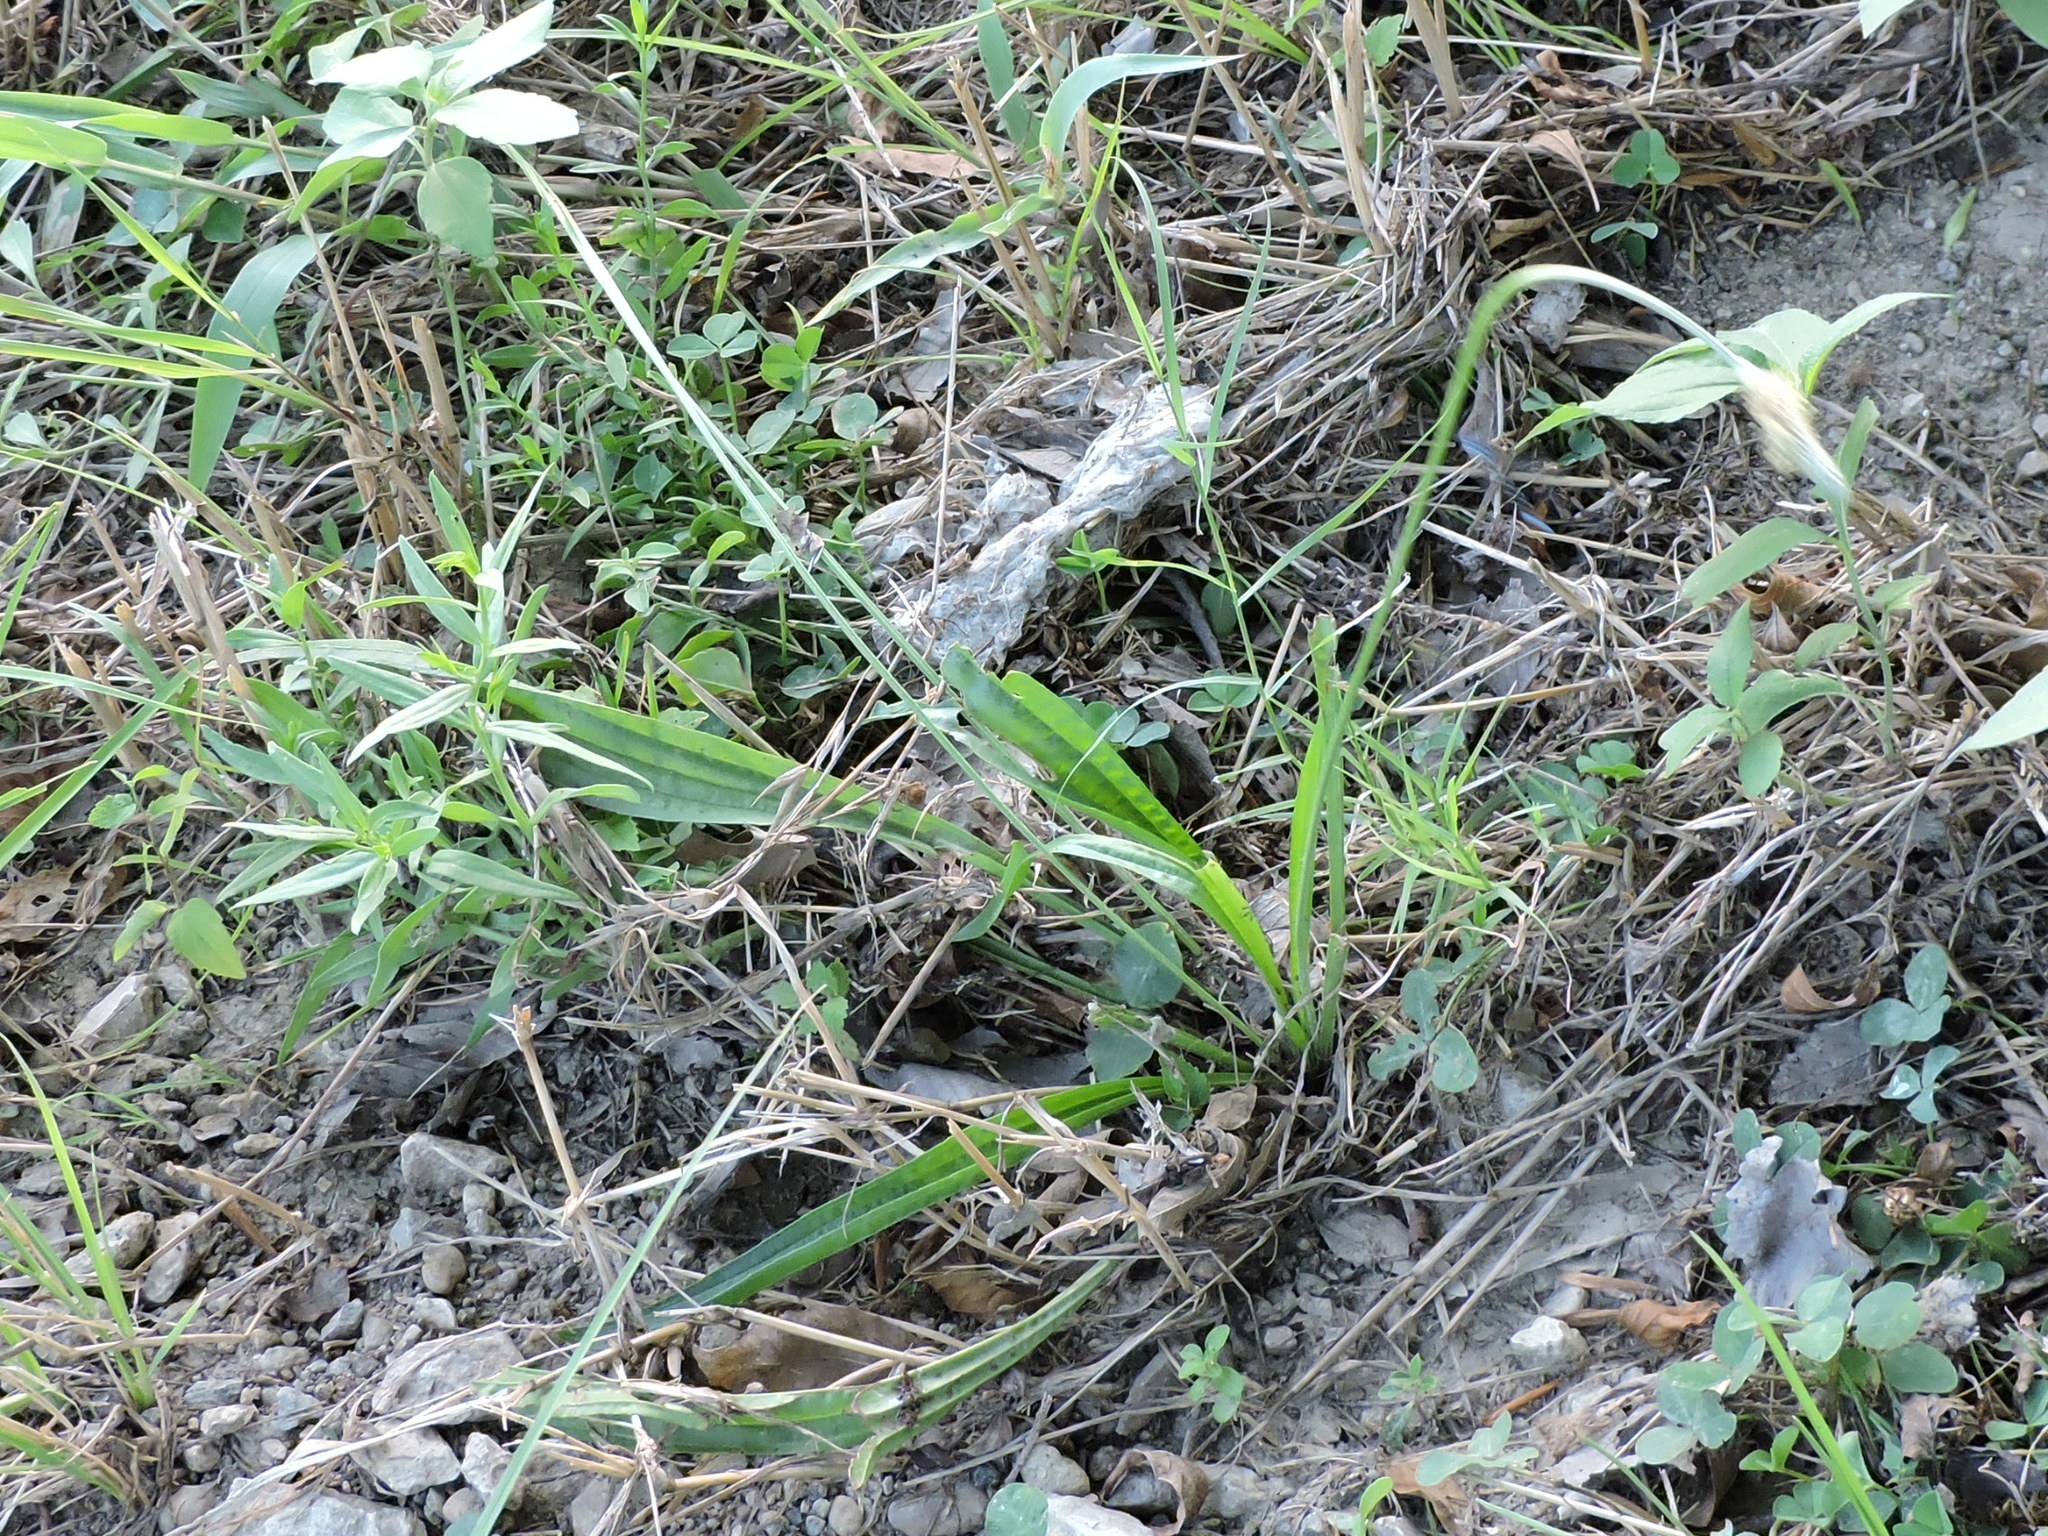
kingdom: Plantae
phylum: Tracheophyta
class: Magnoliopsida
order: Lamiales
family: Plantaginaceae
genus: Plantago
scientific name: Plantago lanceolata
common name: Ribwort plantain
